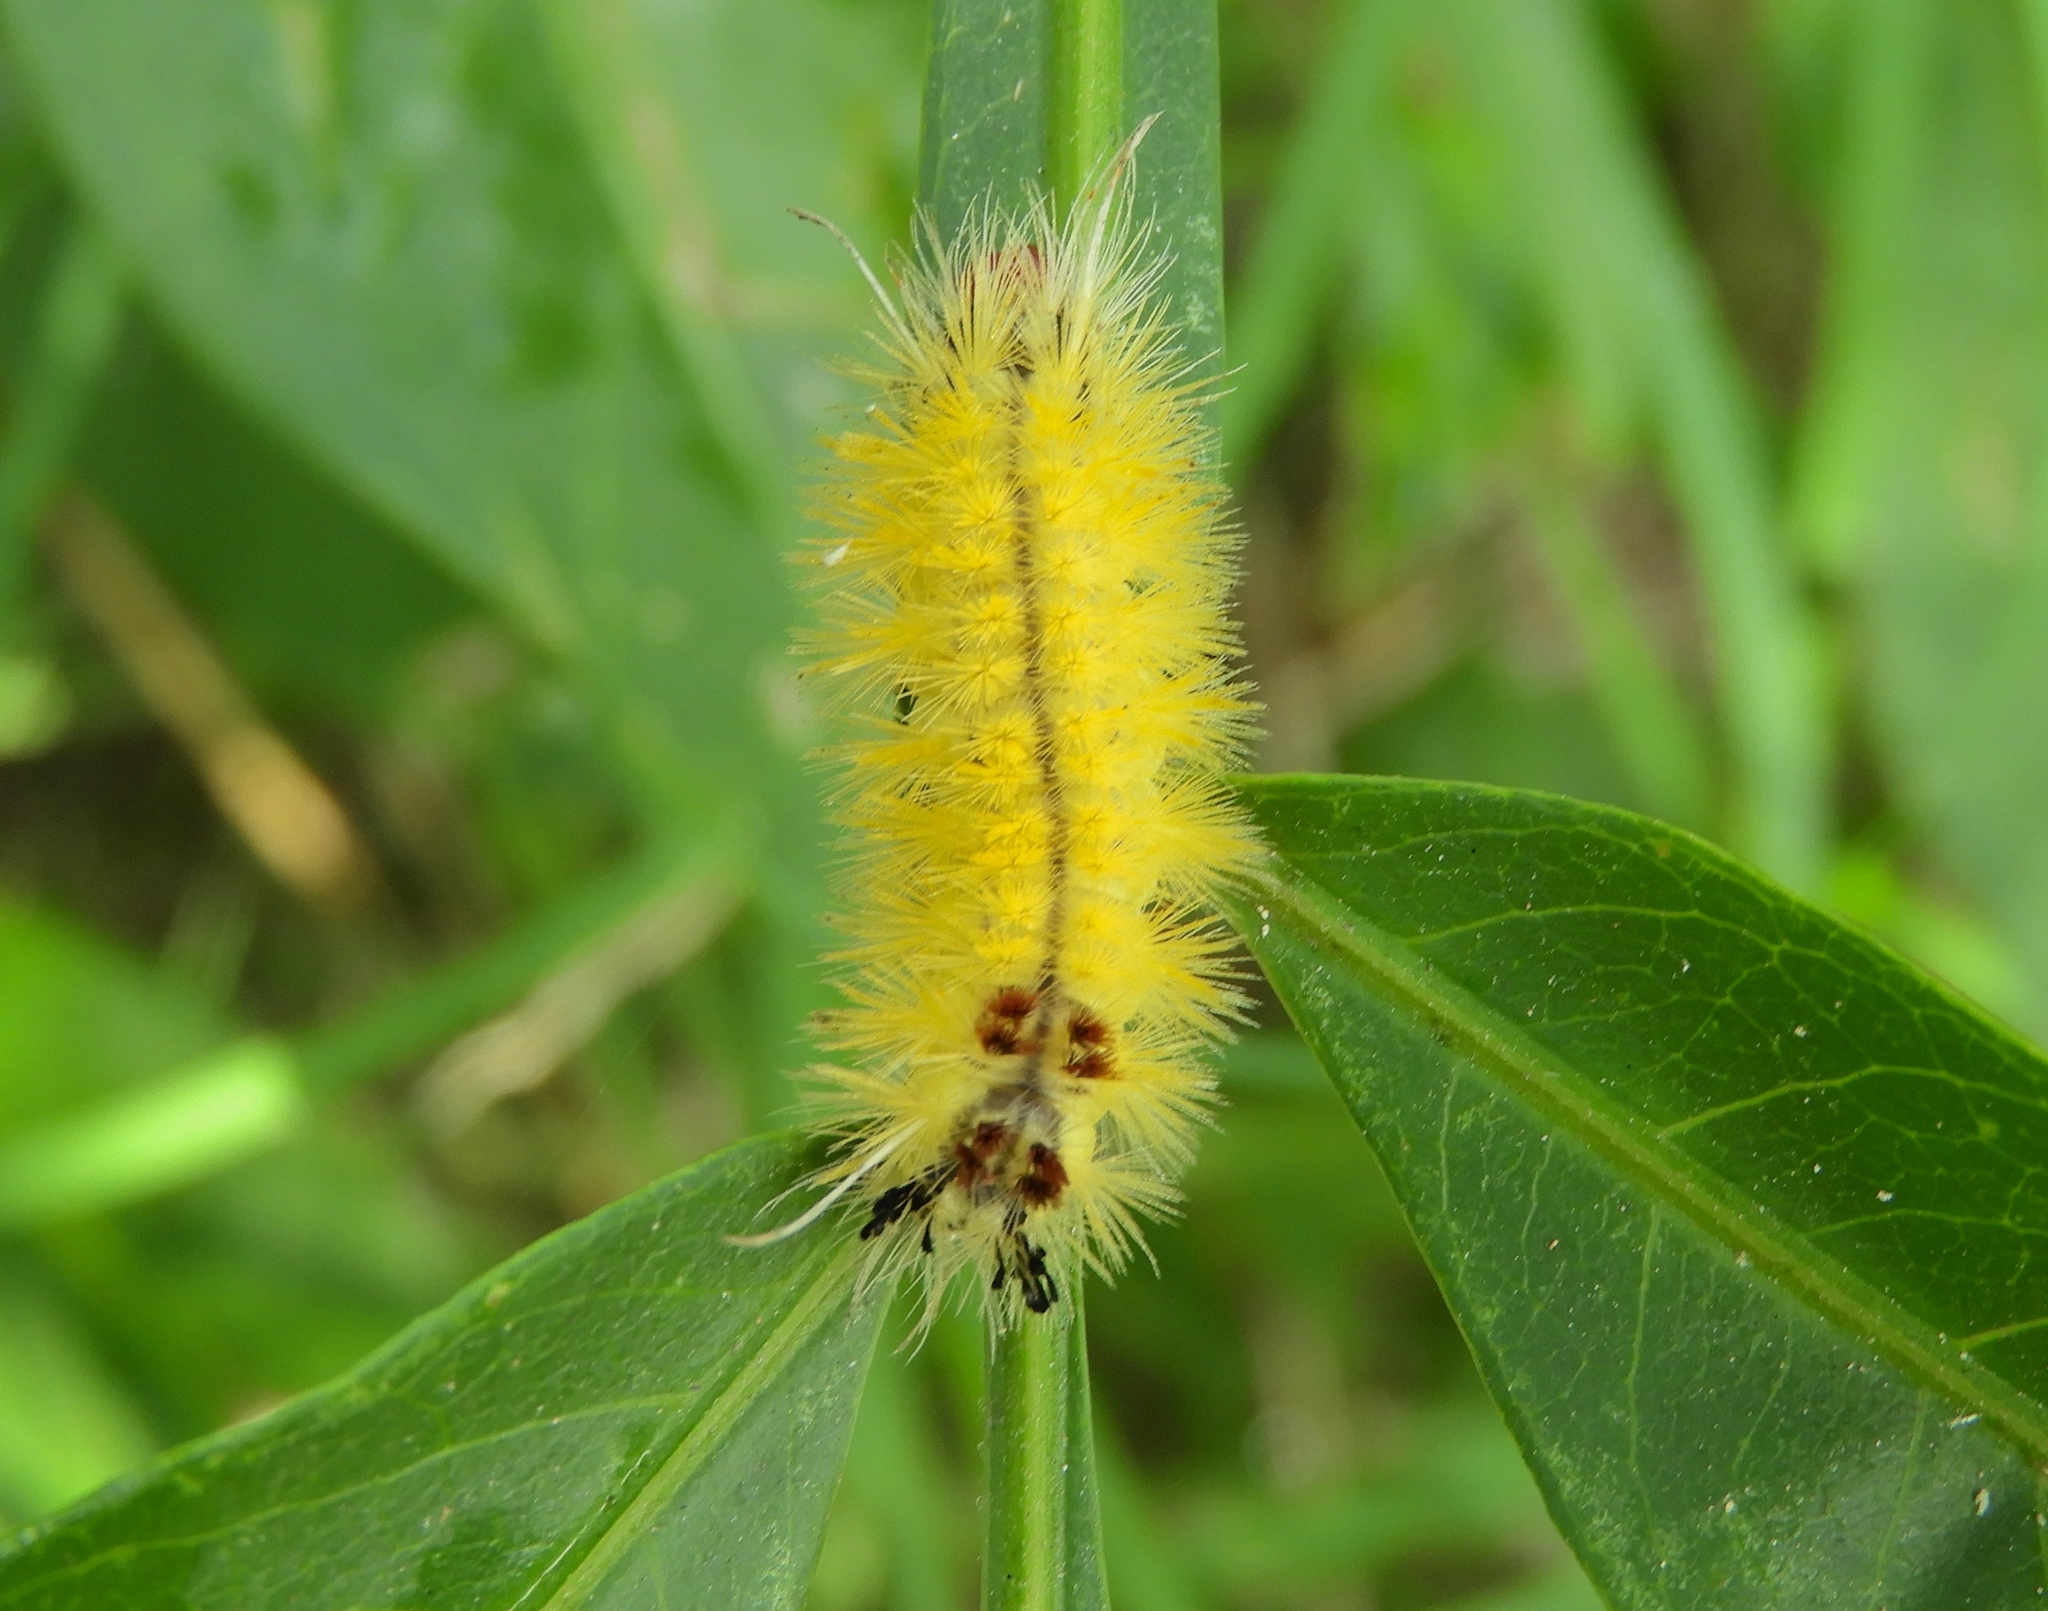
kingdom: Animalia
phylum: Arthropoda
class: Insecta
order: Lepidoptera
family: Erebidae
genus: Lophocampa
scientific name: Lophocampa annulosa
